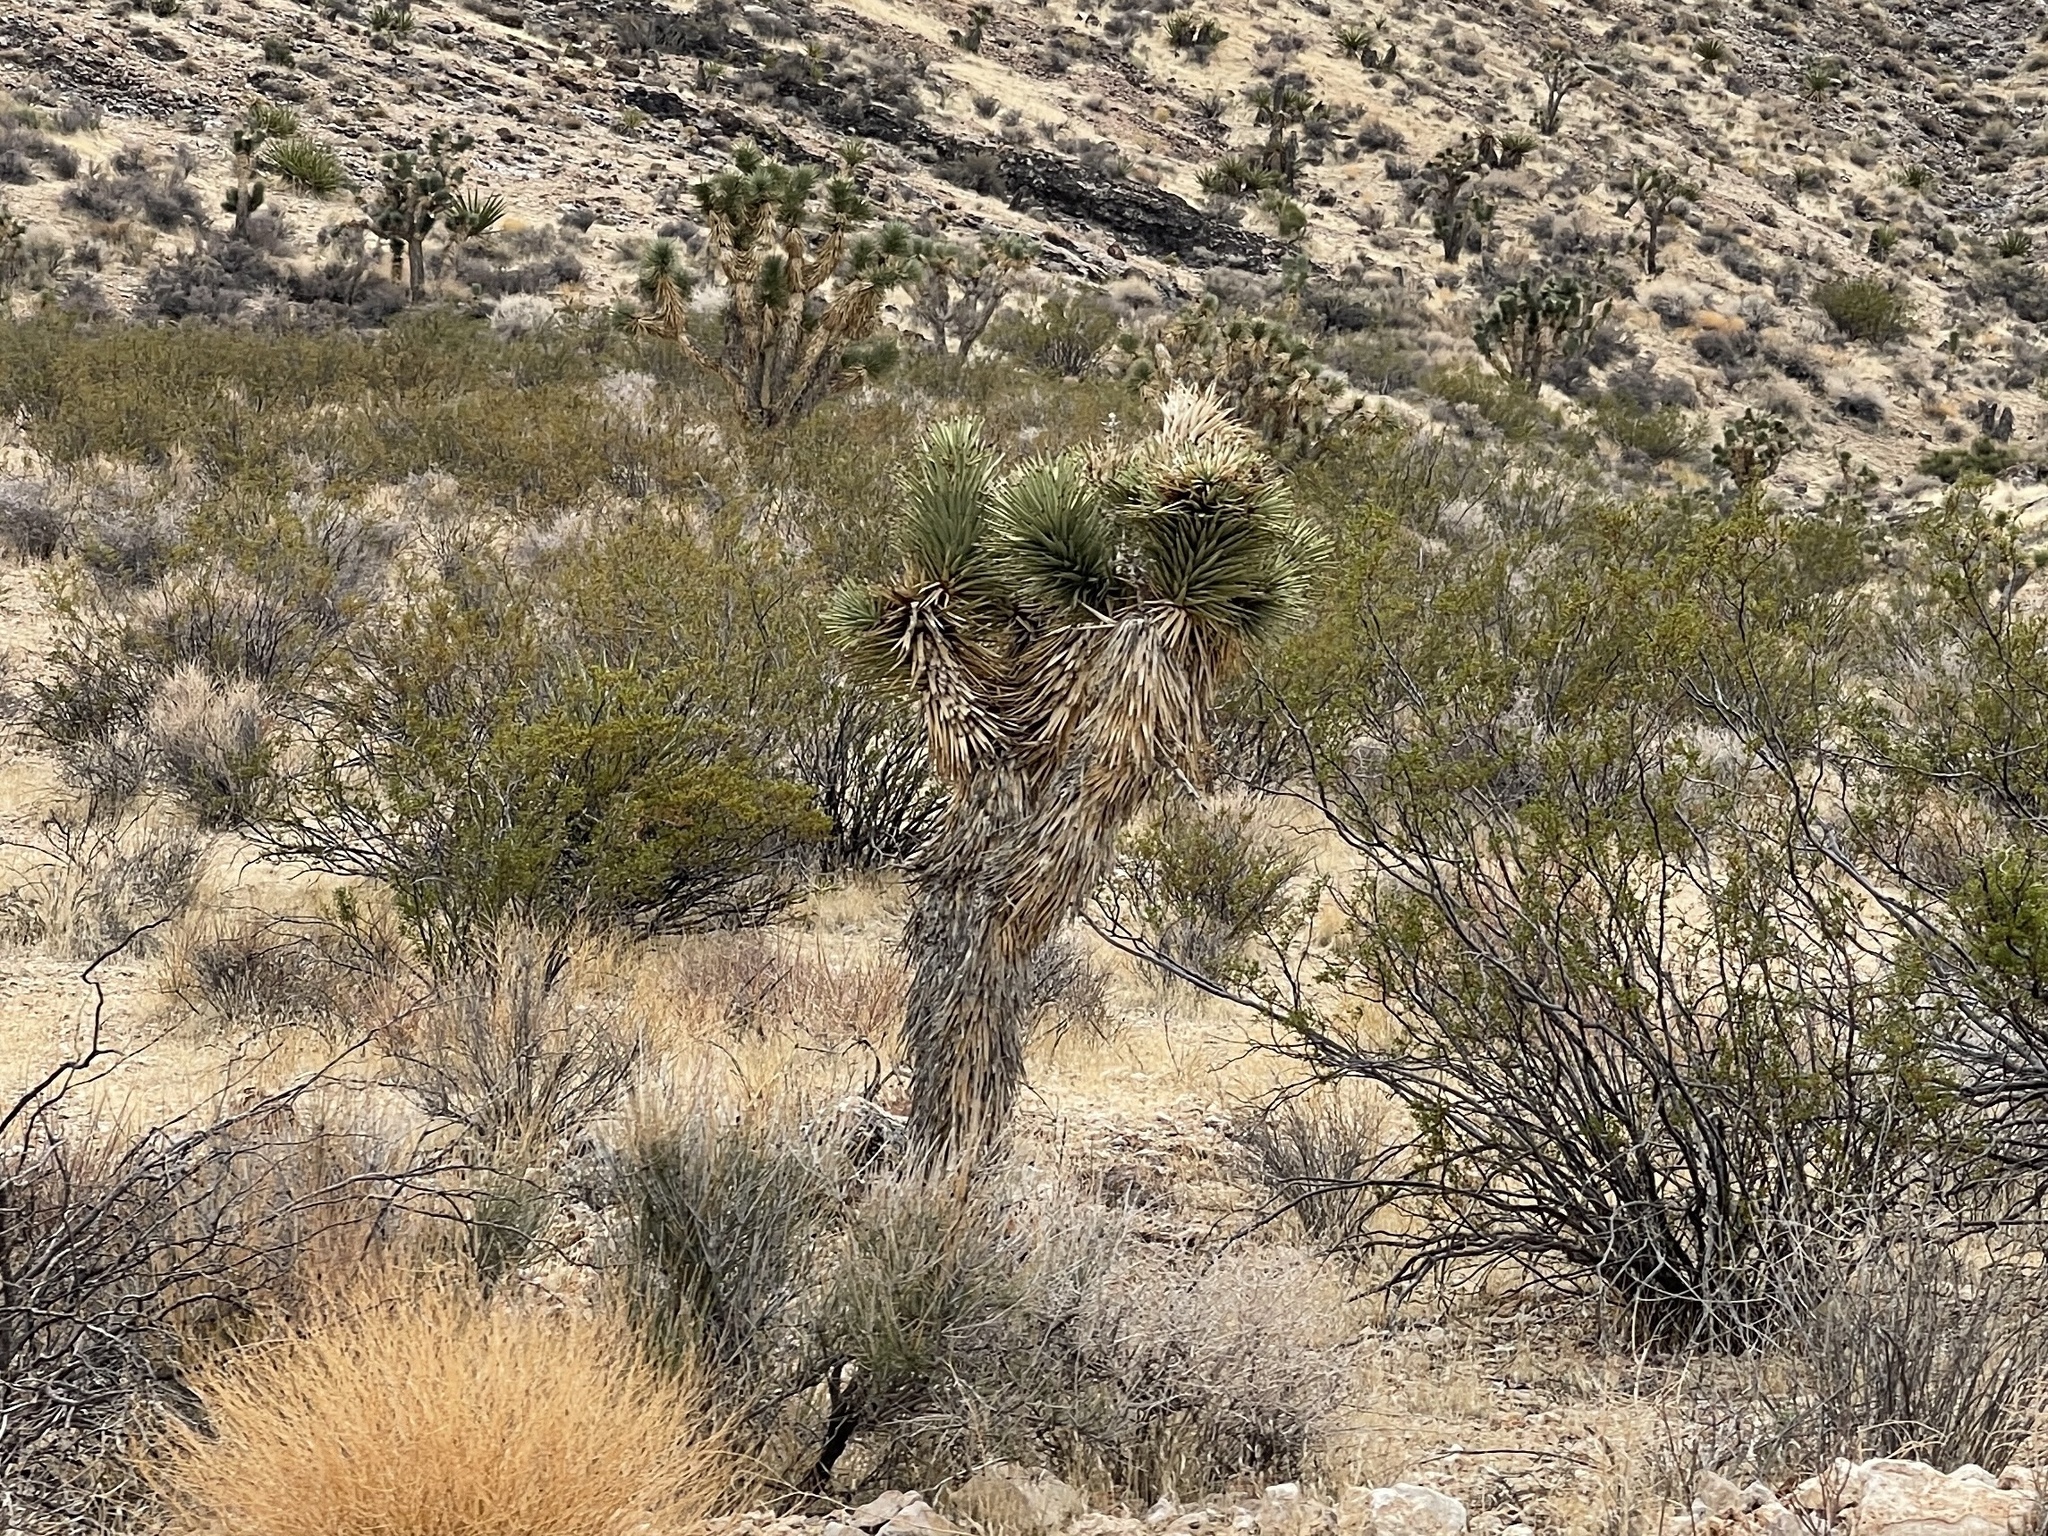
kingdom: Plantae
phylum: Tracheophyta
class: Liliopsida
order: Asparagales
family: Asparagaceae
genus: Yucca
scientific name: Yucca brevifolia
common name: Joshua tree
